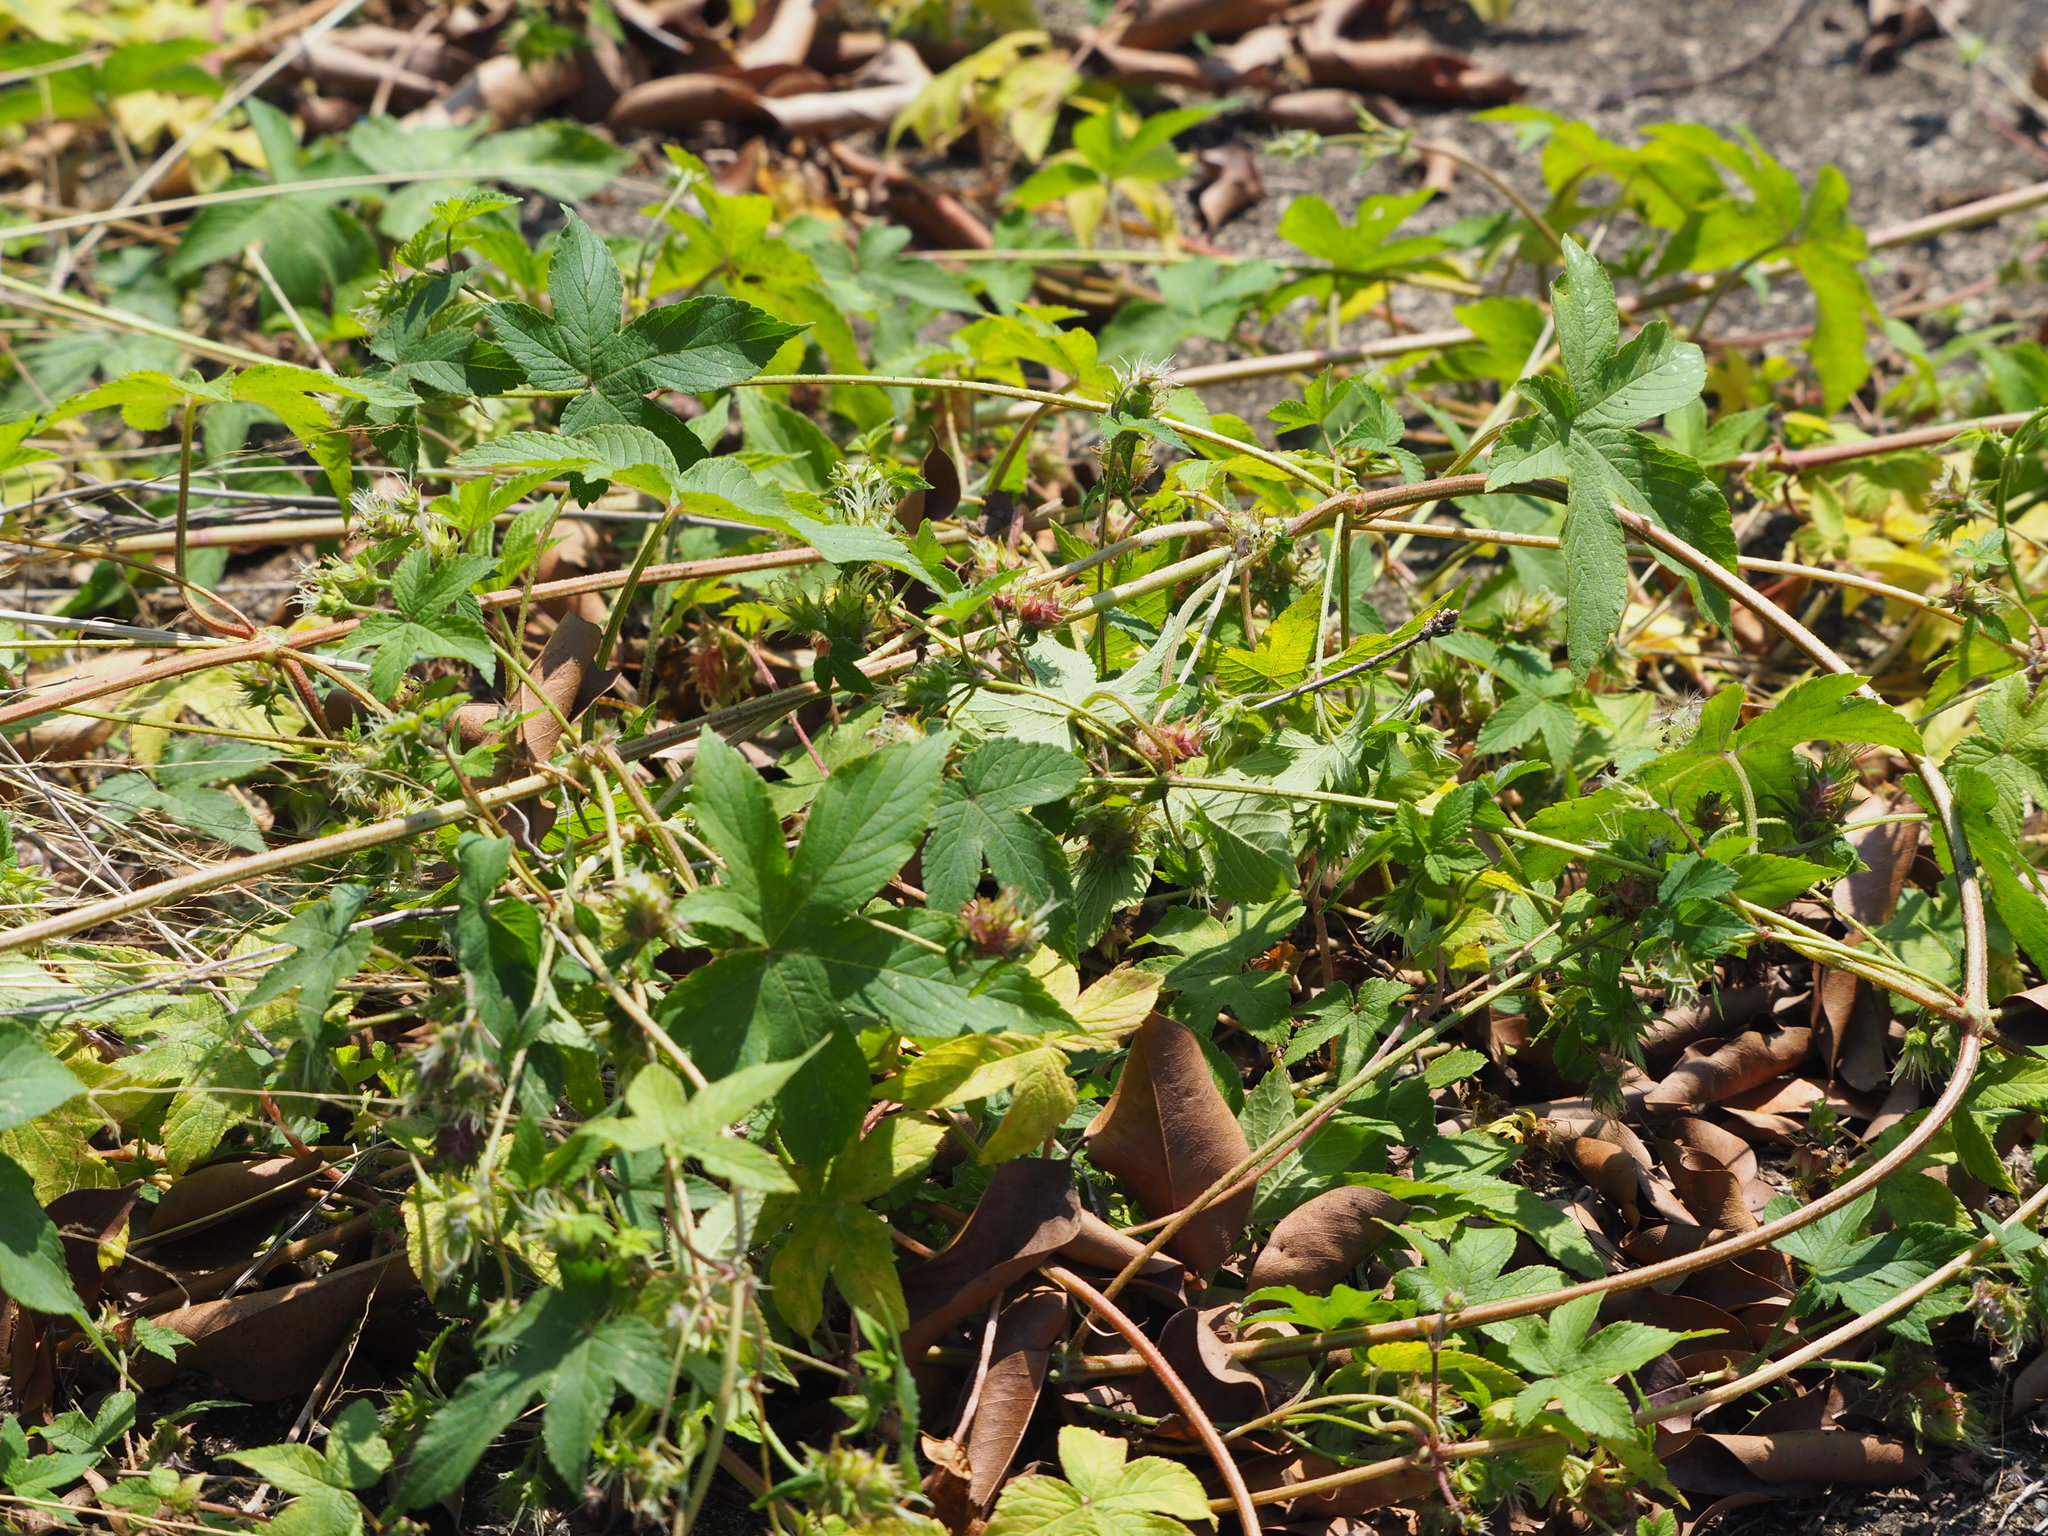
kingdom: Plantae
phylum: Tracheophyta
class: Magnoliopsida
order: Rosales
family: Cannabaceae
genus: Humulus
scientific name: Humulus scandens
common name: Japanese hop
